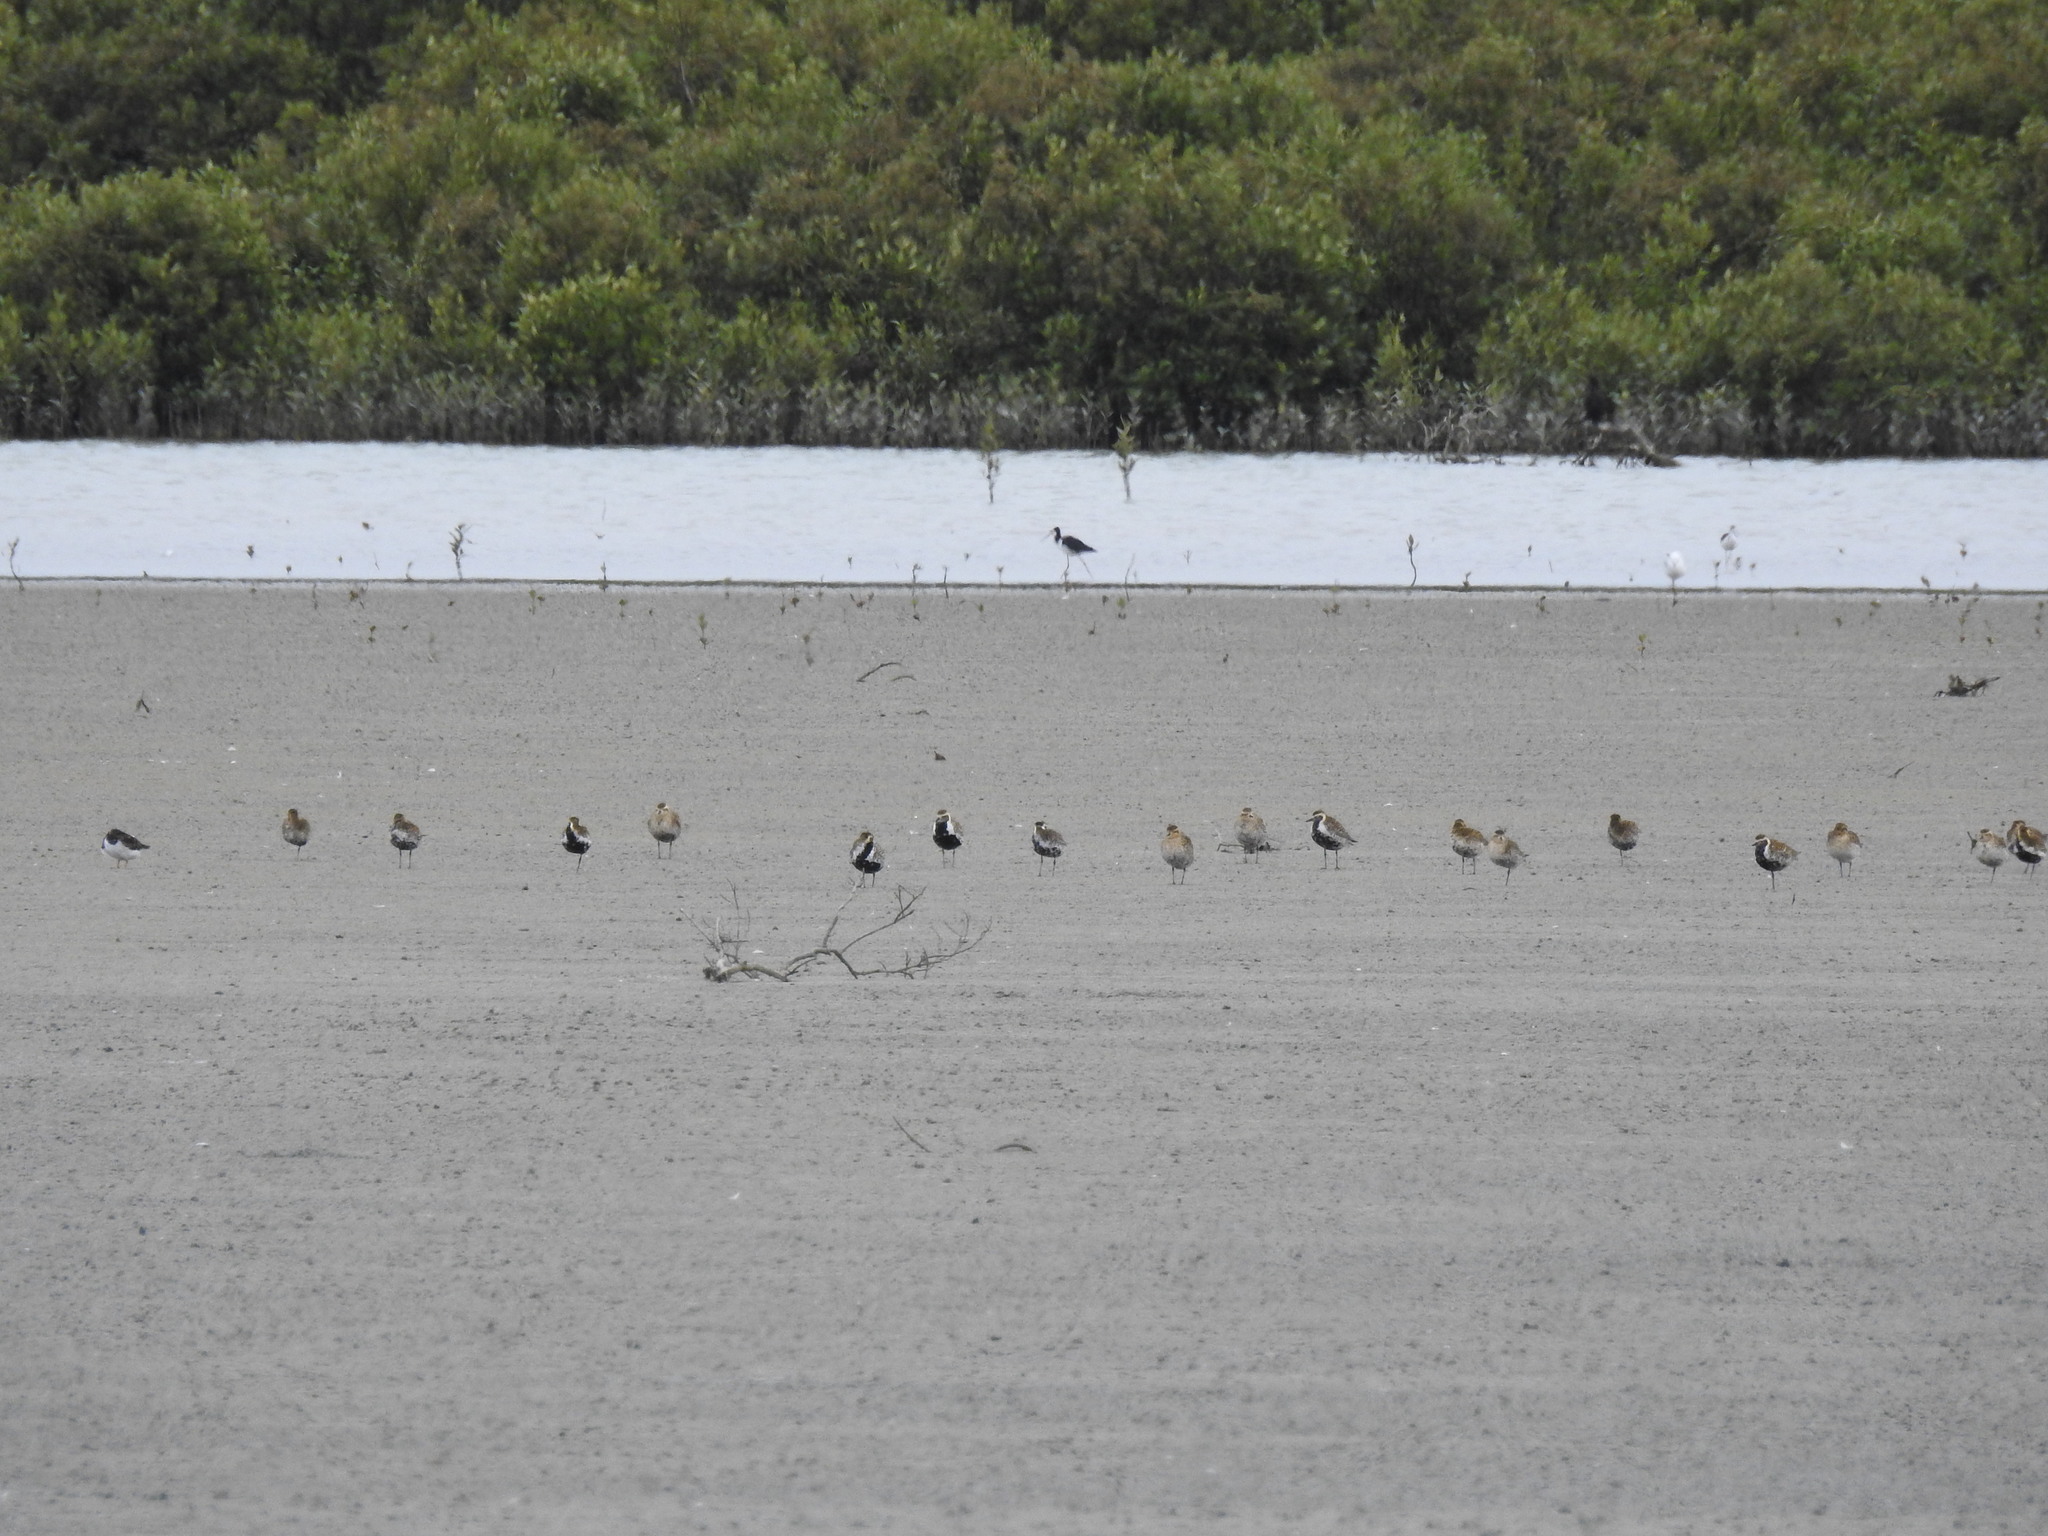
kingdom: Animalia
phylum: Chordata
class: Aves
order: Charadriiformes
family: Charadriidae
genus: Pluvialis
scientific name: Pluvialis fulva
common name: Pacific golden plover
